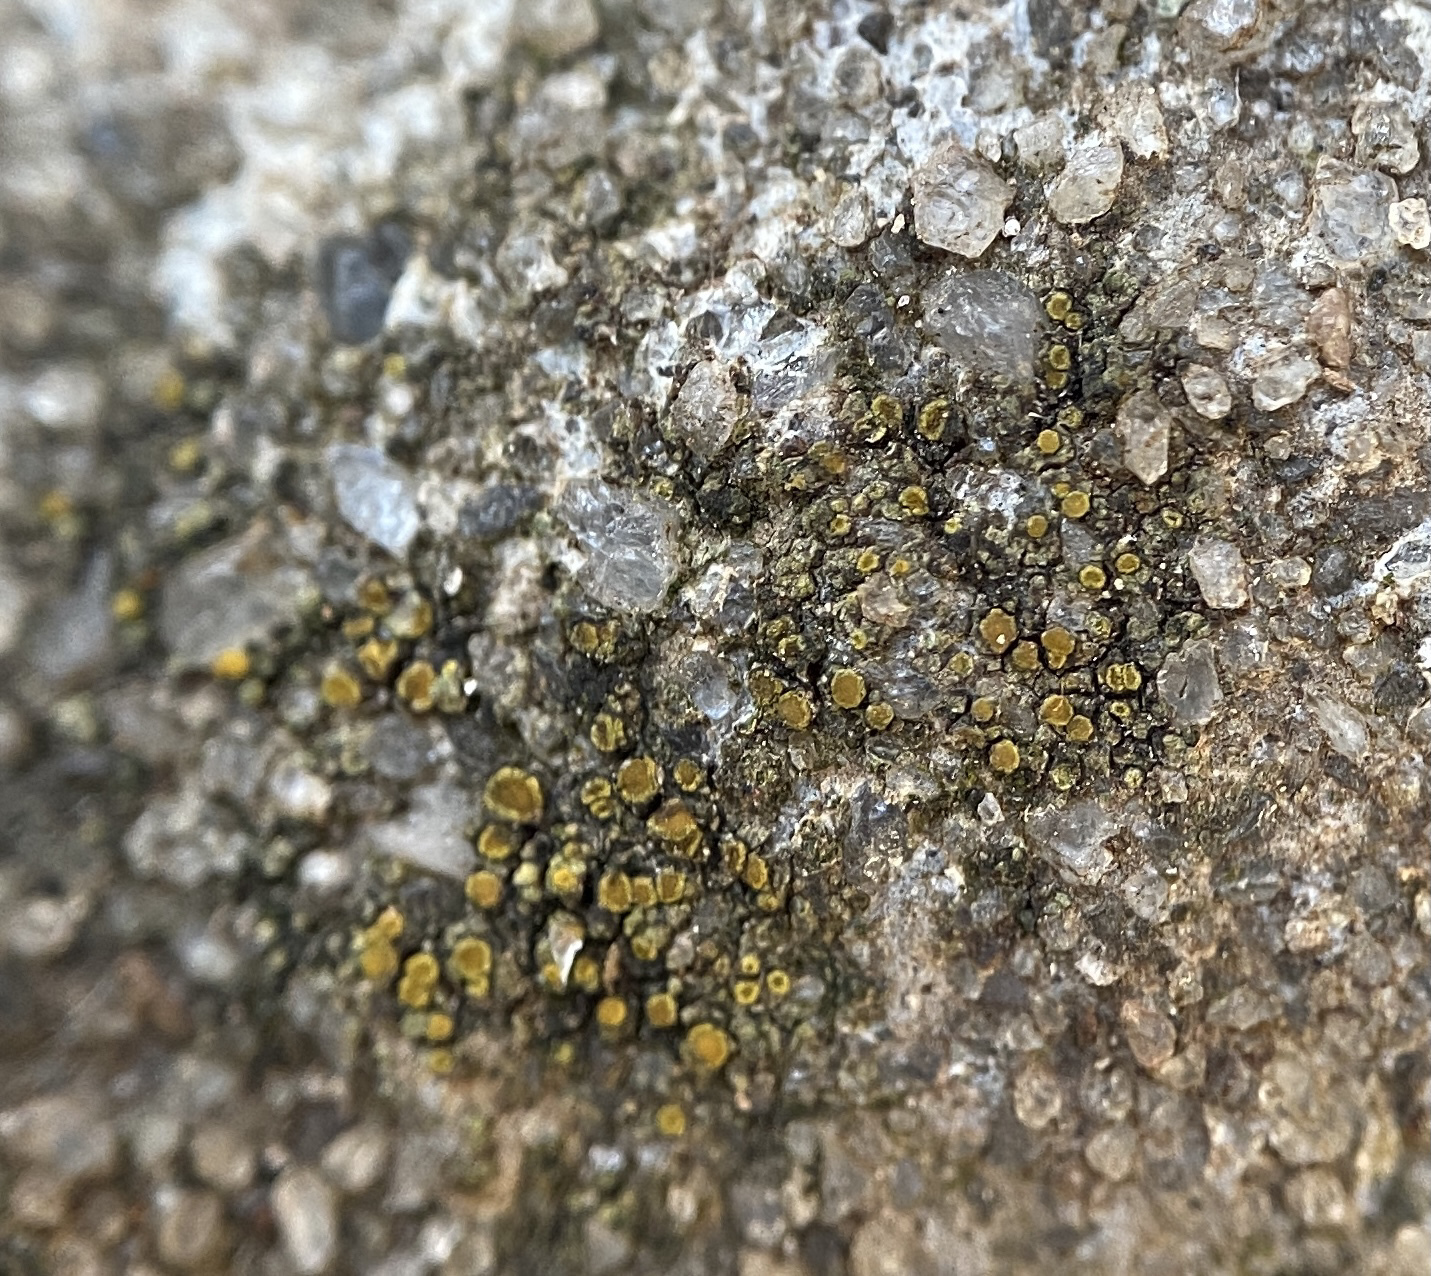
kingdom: Fungi
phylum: Ascomycota
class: Lecanoromycetes
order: Teloschistales
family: Teloschistaceae
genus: Xanthocarpia
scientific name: Xanthocarpia feracissima
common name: Sidewalk firedot
